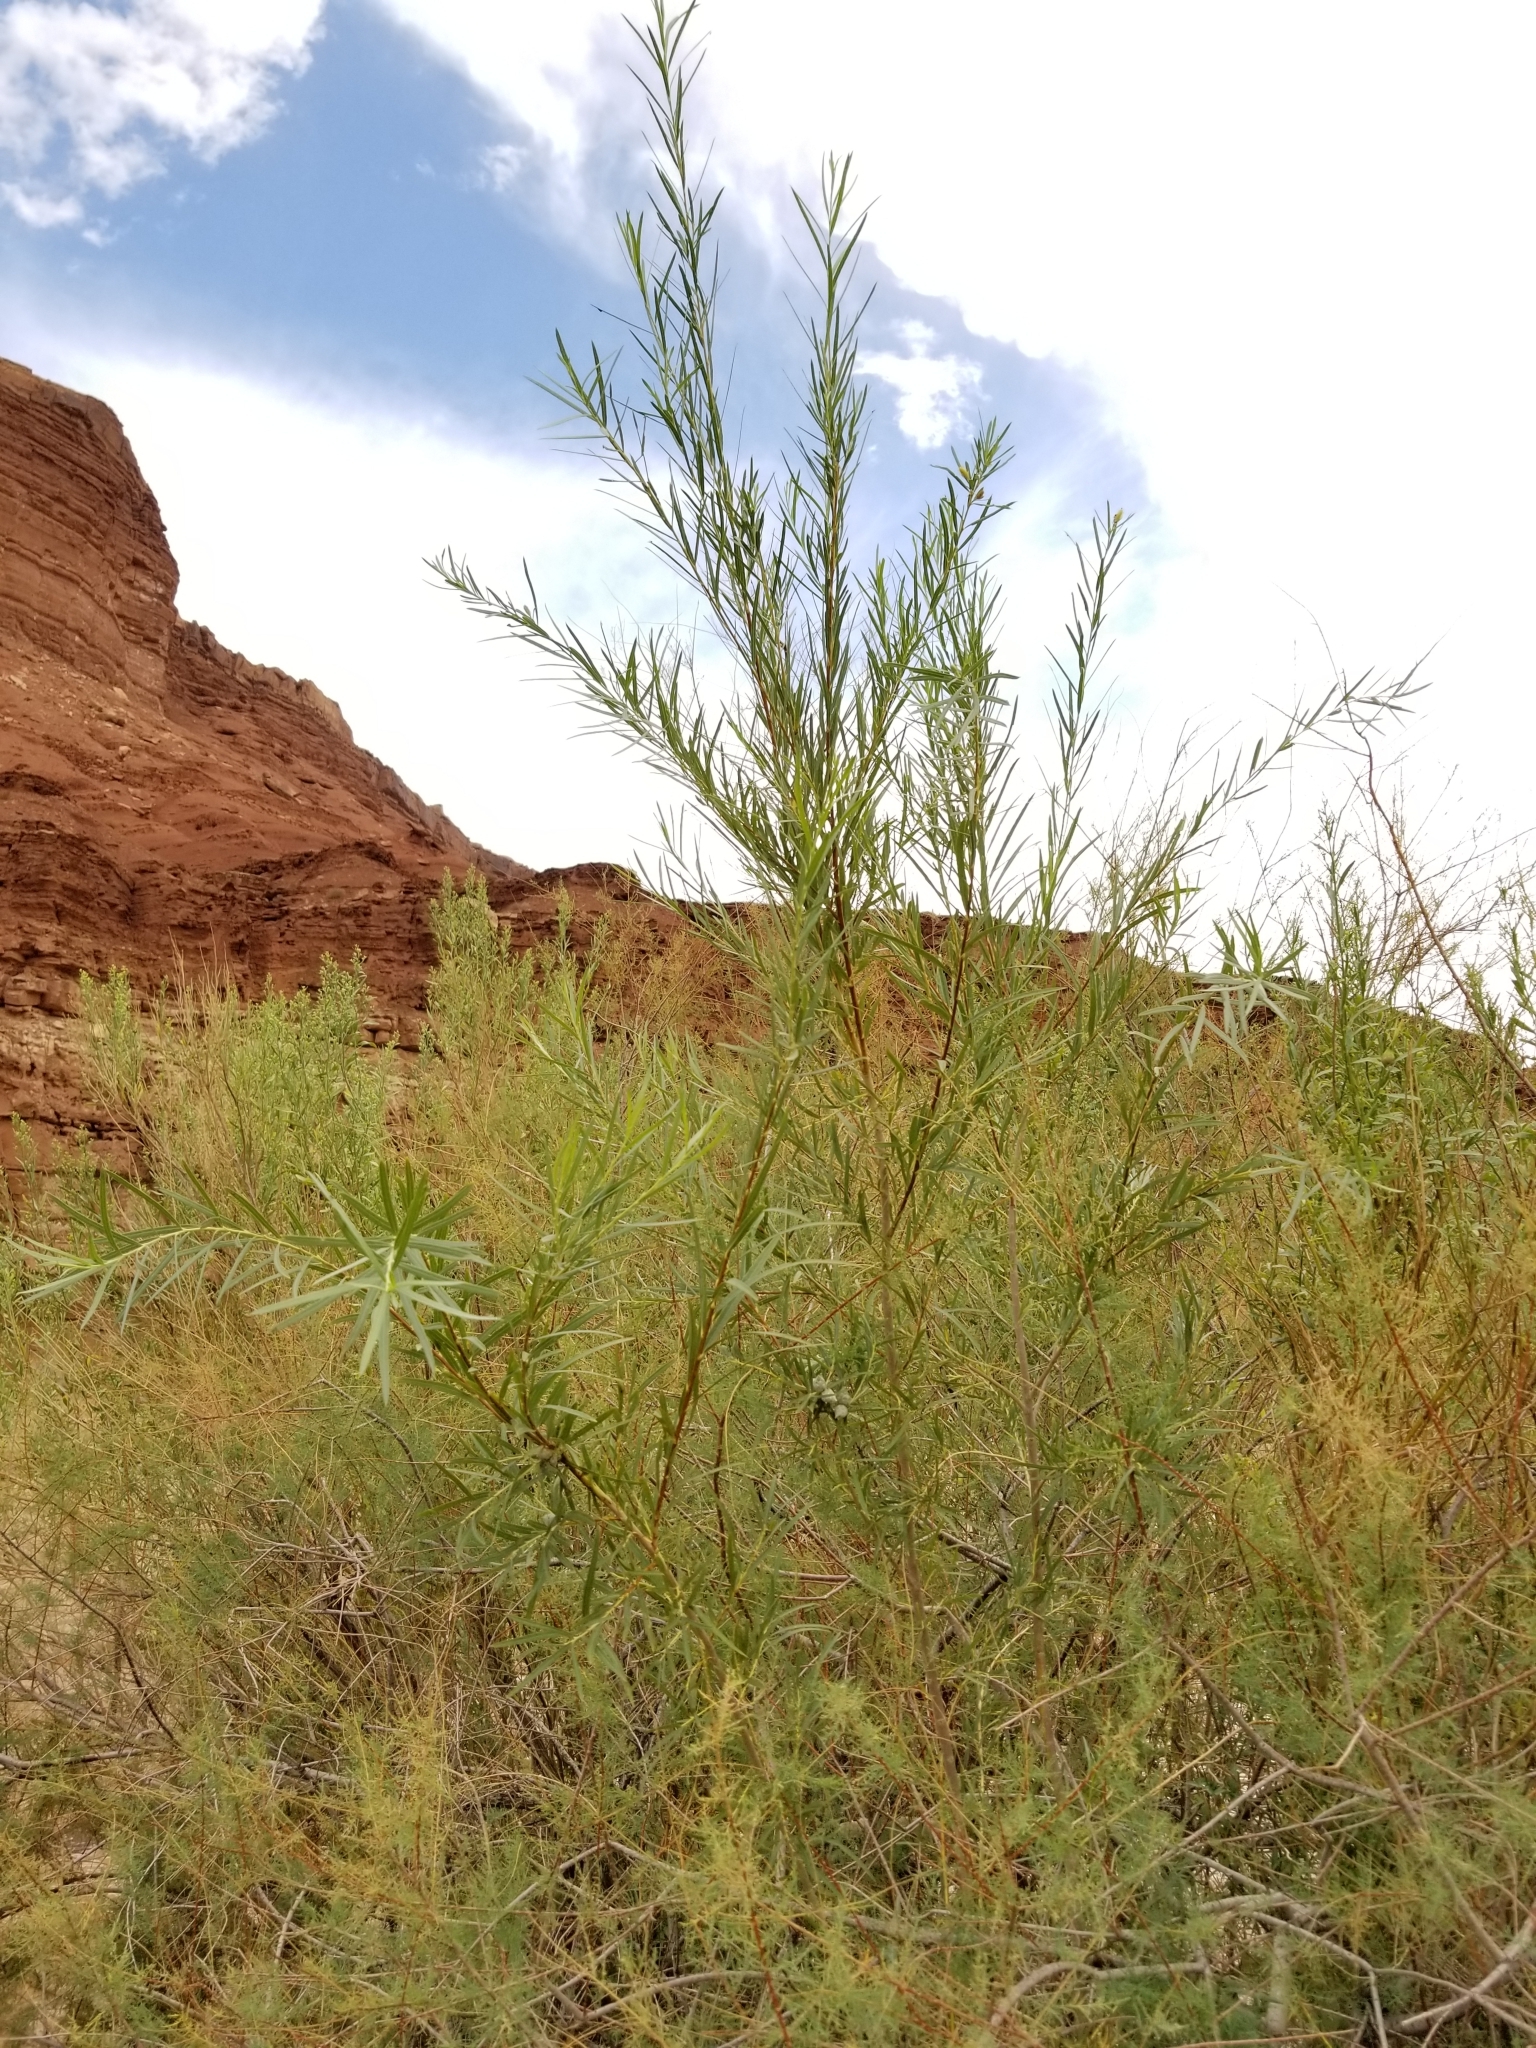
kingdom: Plantae
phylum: Tracheophyta
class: Magnoliopsida
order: Malpighiales
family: Salicaceae
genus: Salix
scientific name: Salix exigua
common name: Coyote willow
